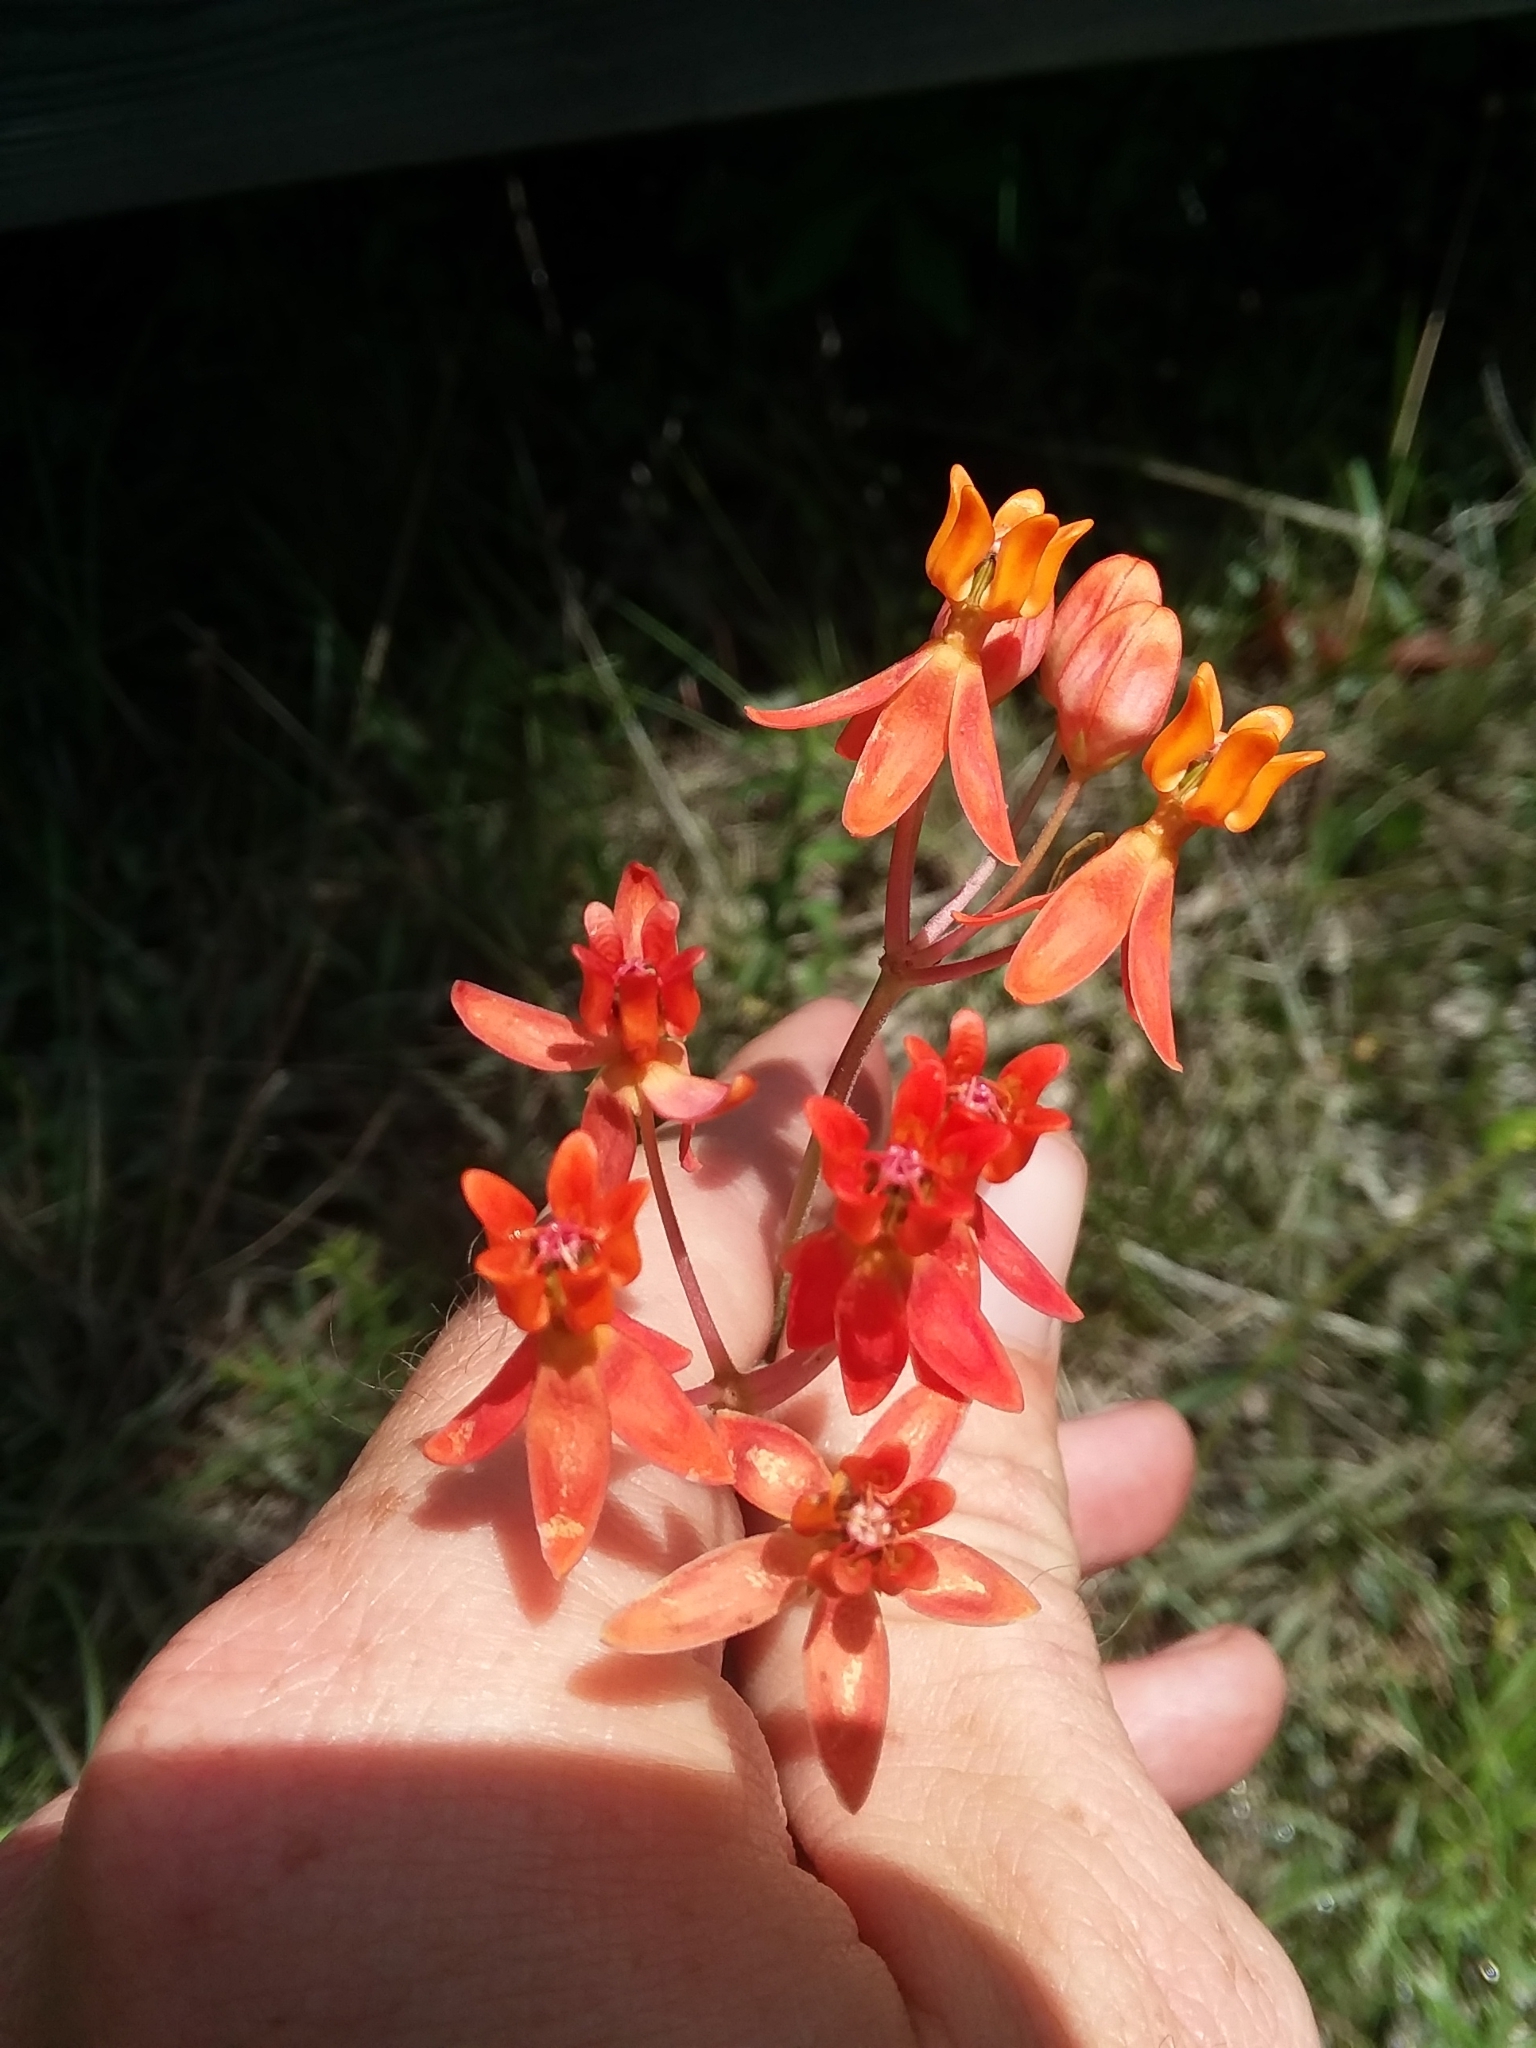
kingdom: Plantae
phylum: Tracheophyta
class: Magnoliopsida
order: Gentianales
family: Apocynaceae
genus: Asclepias
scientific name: Asclepias lanceolata
